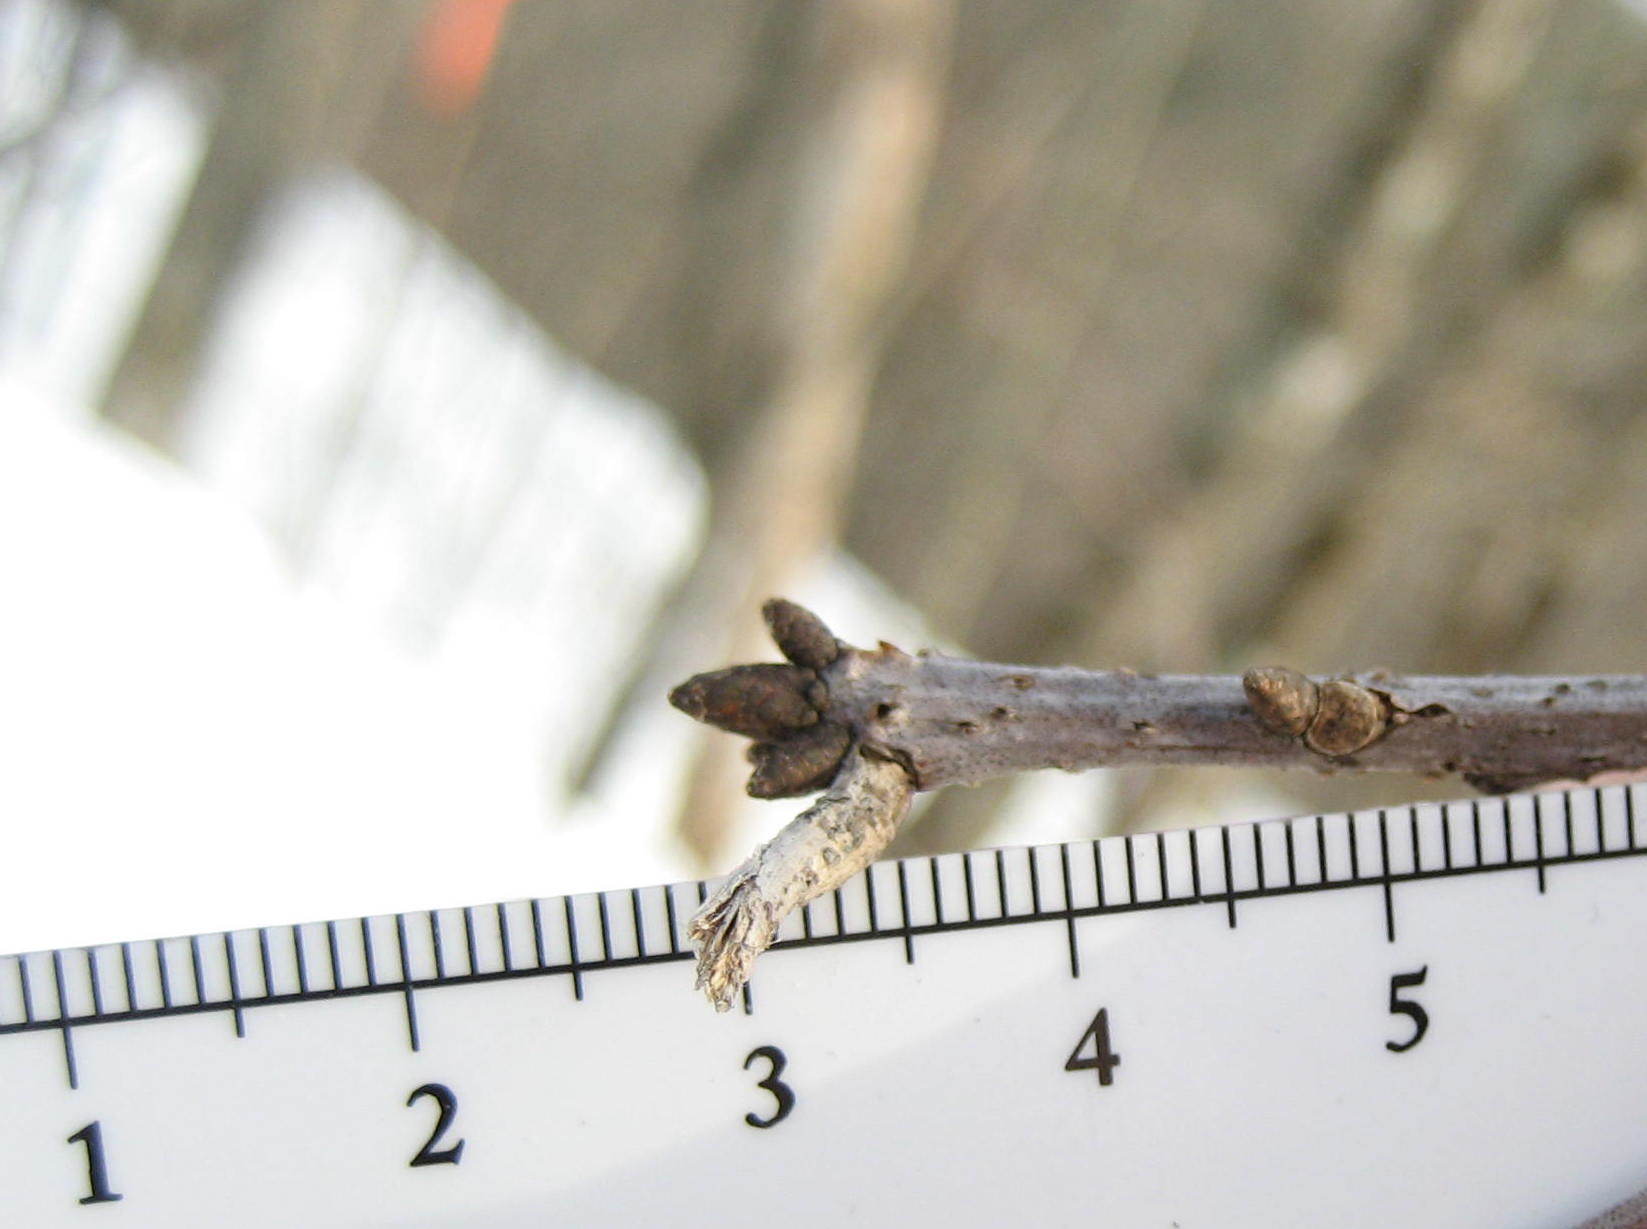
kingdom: Plantae
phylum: Tracheophyta
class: Magnoliopsida
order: Fagales
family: Fagaceae
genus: Quercus
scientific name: Quercus rubra
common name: Red oak
